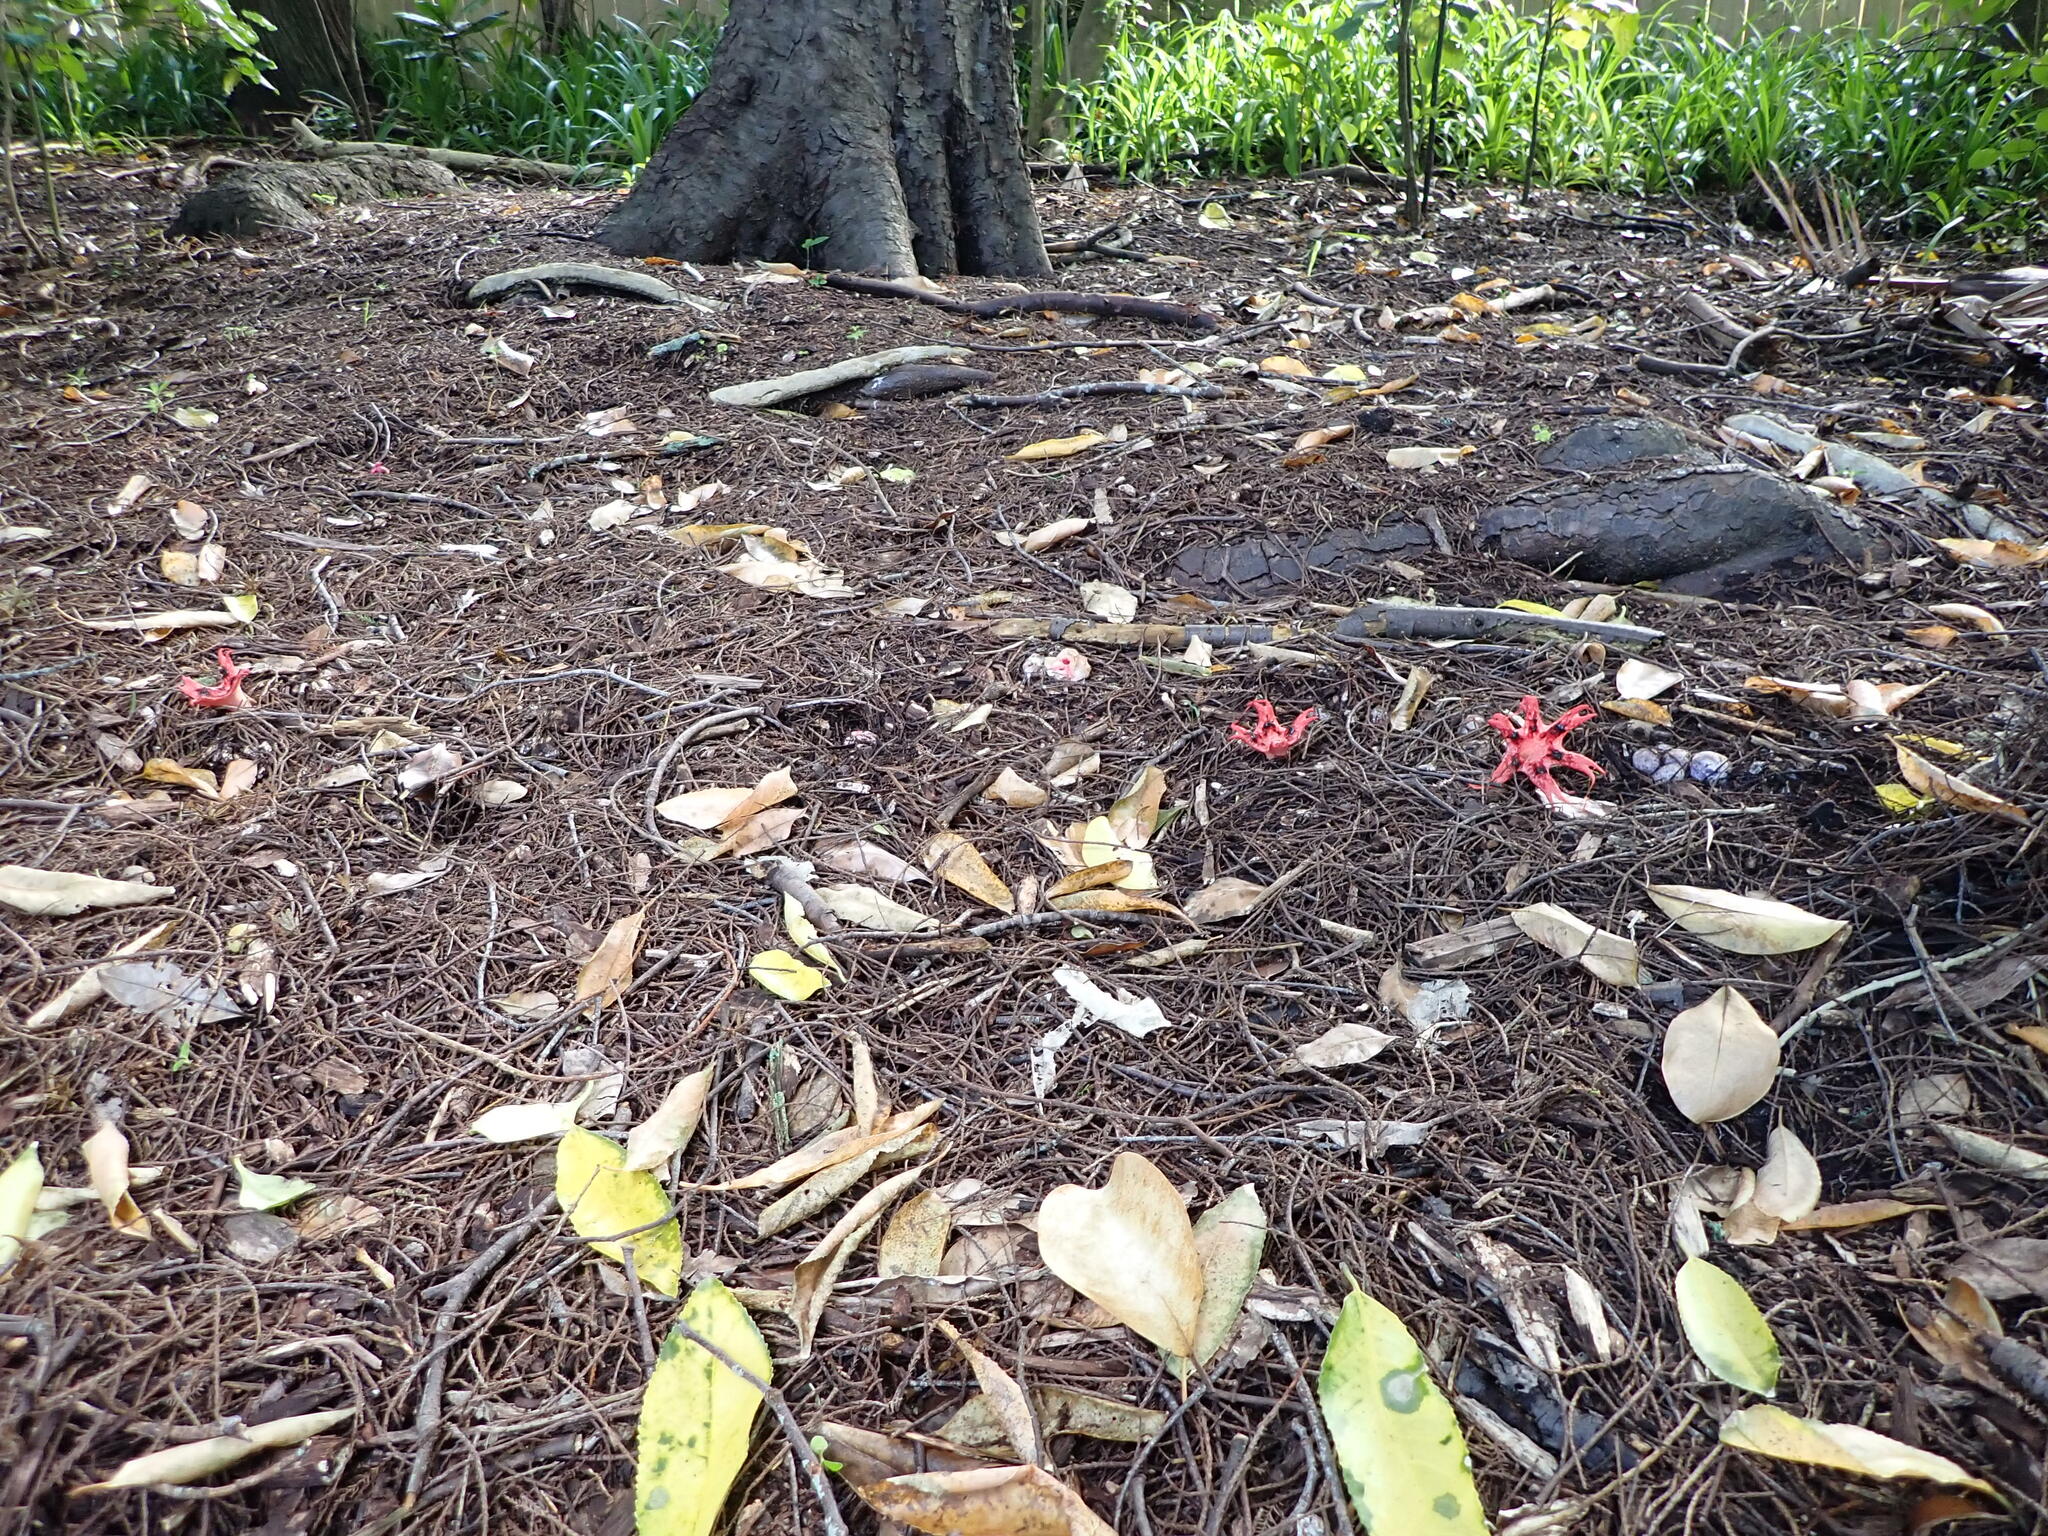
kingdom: Fungi
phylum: Basidiomycota
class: Agaricomycetes
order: Phallales
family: Phallaceae
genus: Clathrus
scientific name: Clathrus archeri
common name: Devil's fingers
